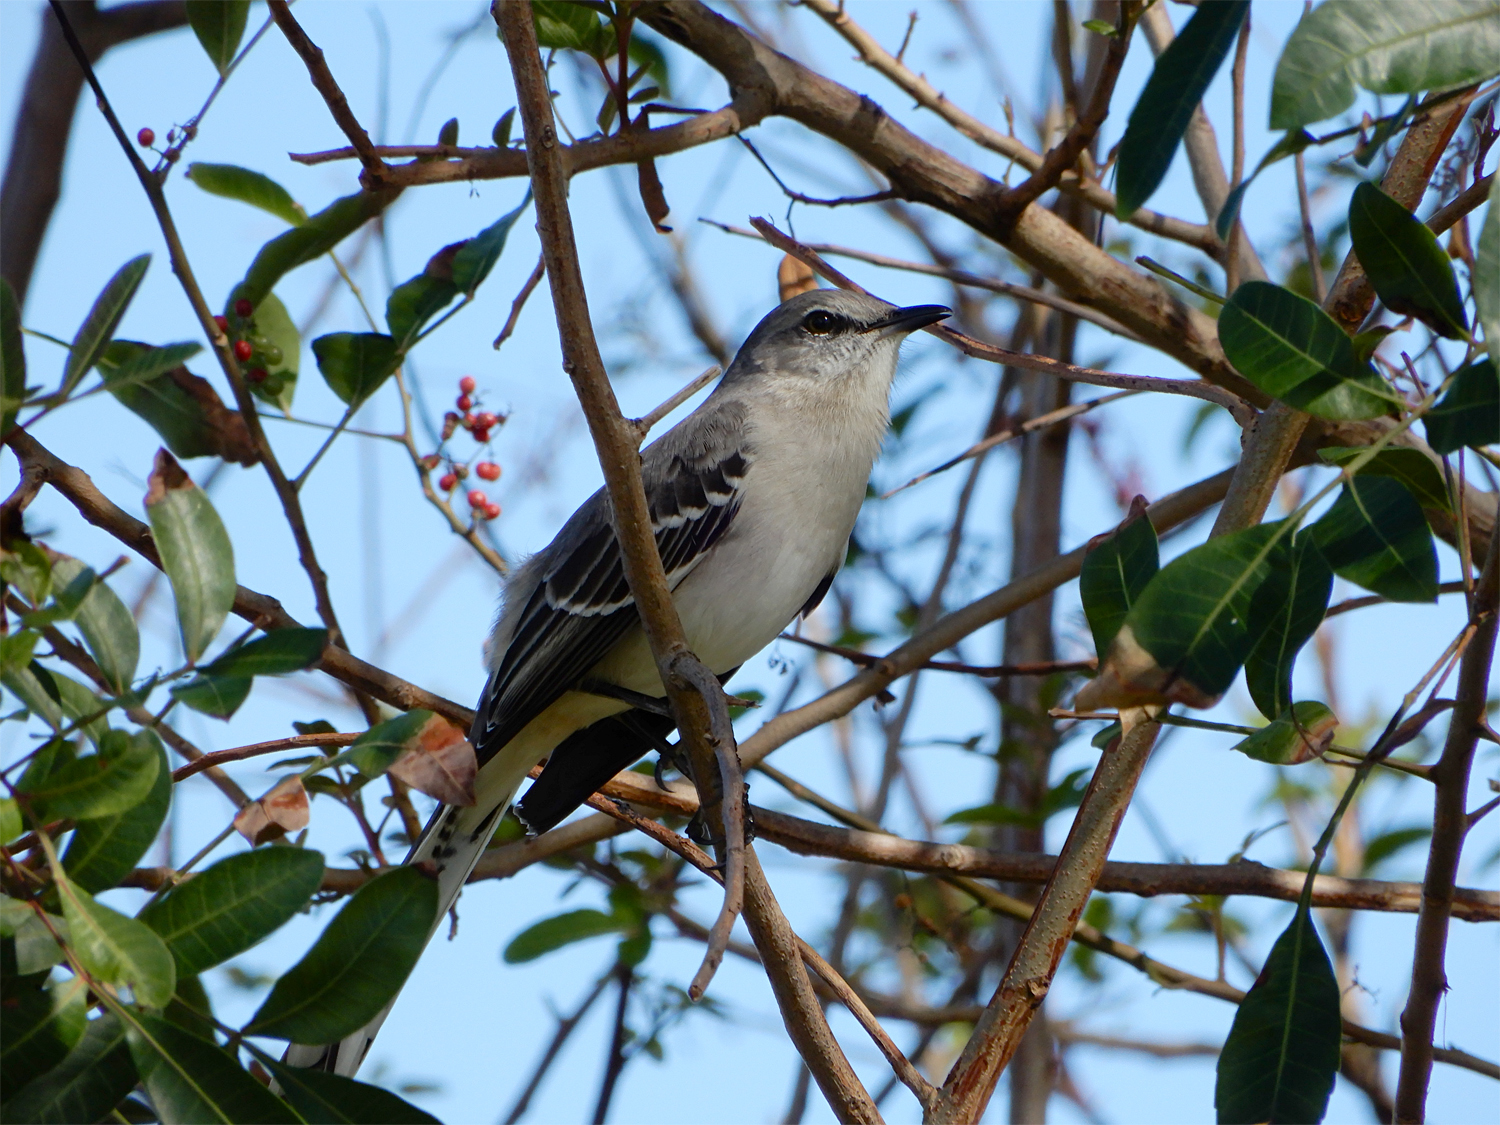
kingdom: Animalia
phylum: Chordata
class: Aves
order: Passeriformes
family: Mimidae
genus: Mimus
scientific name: Mimus polyglottos
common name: Northern mockingbird
